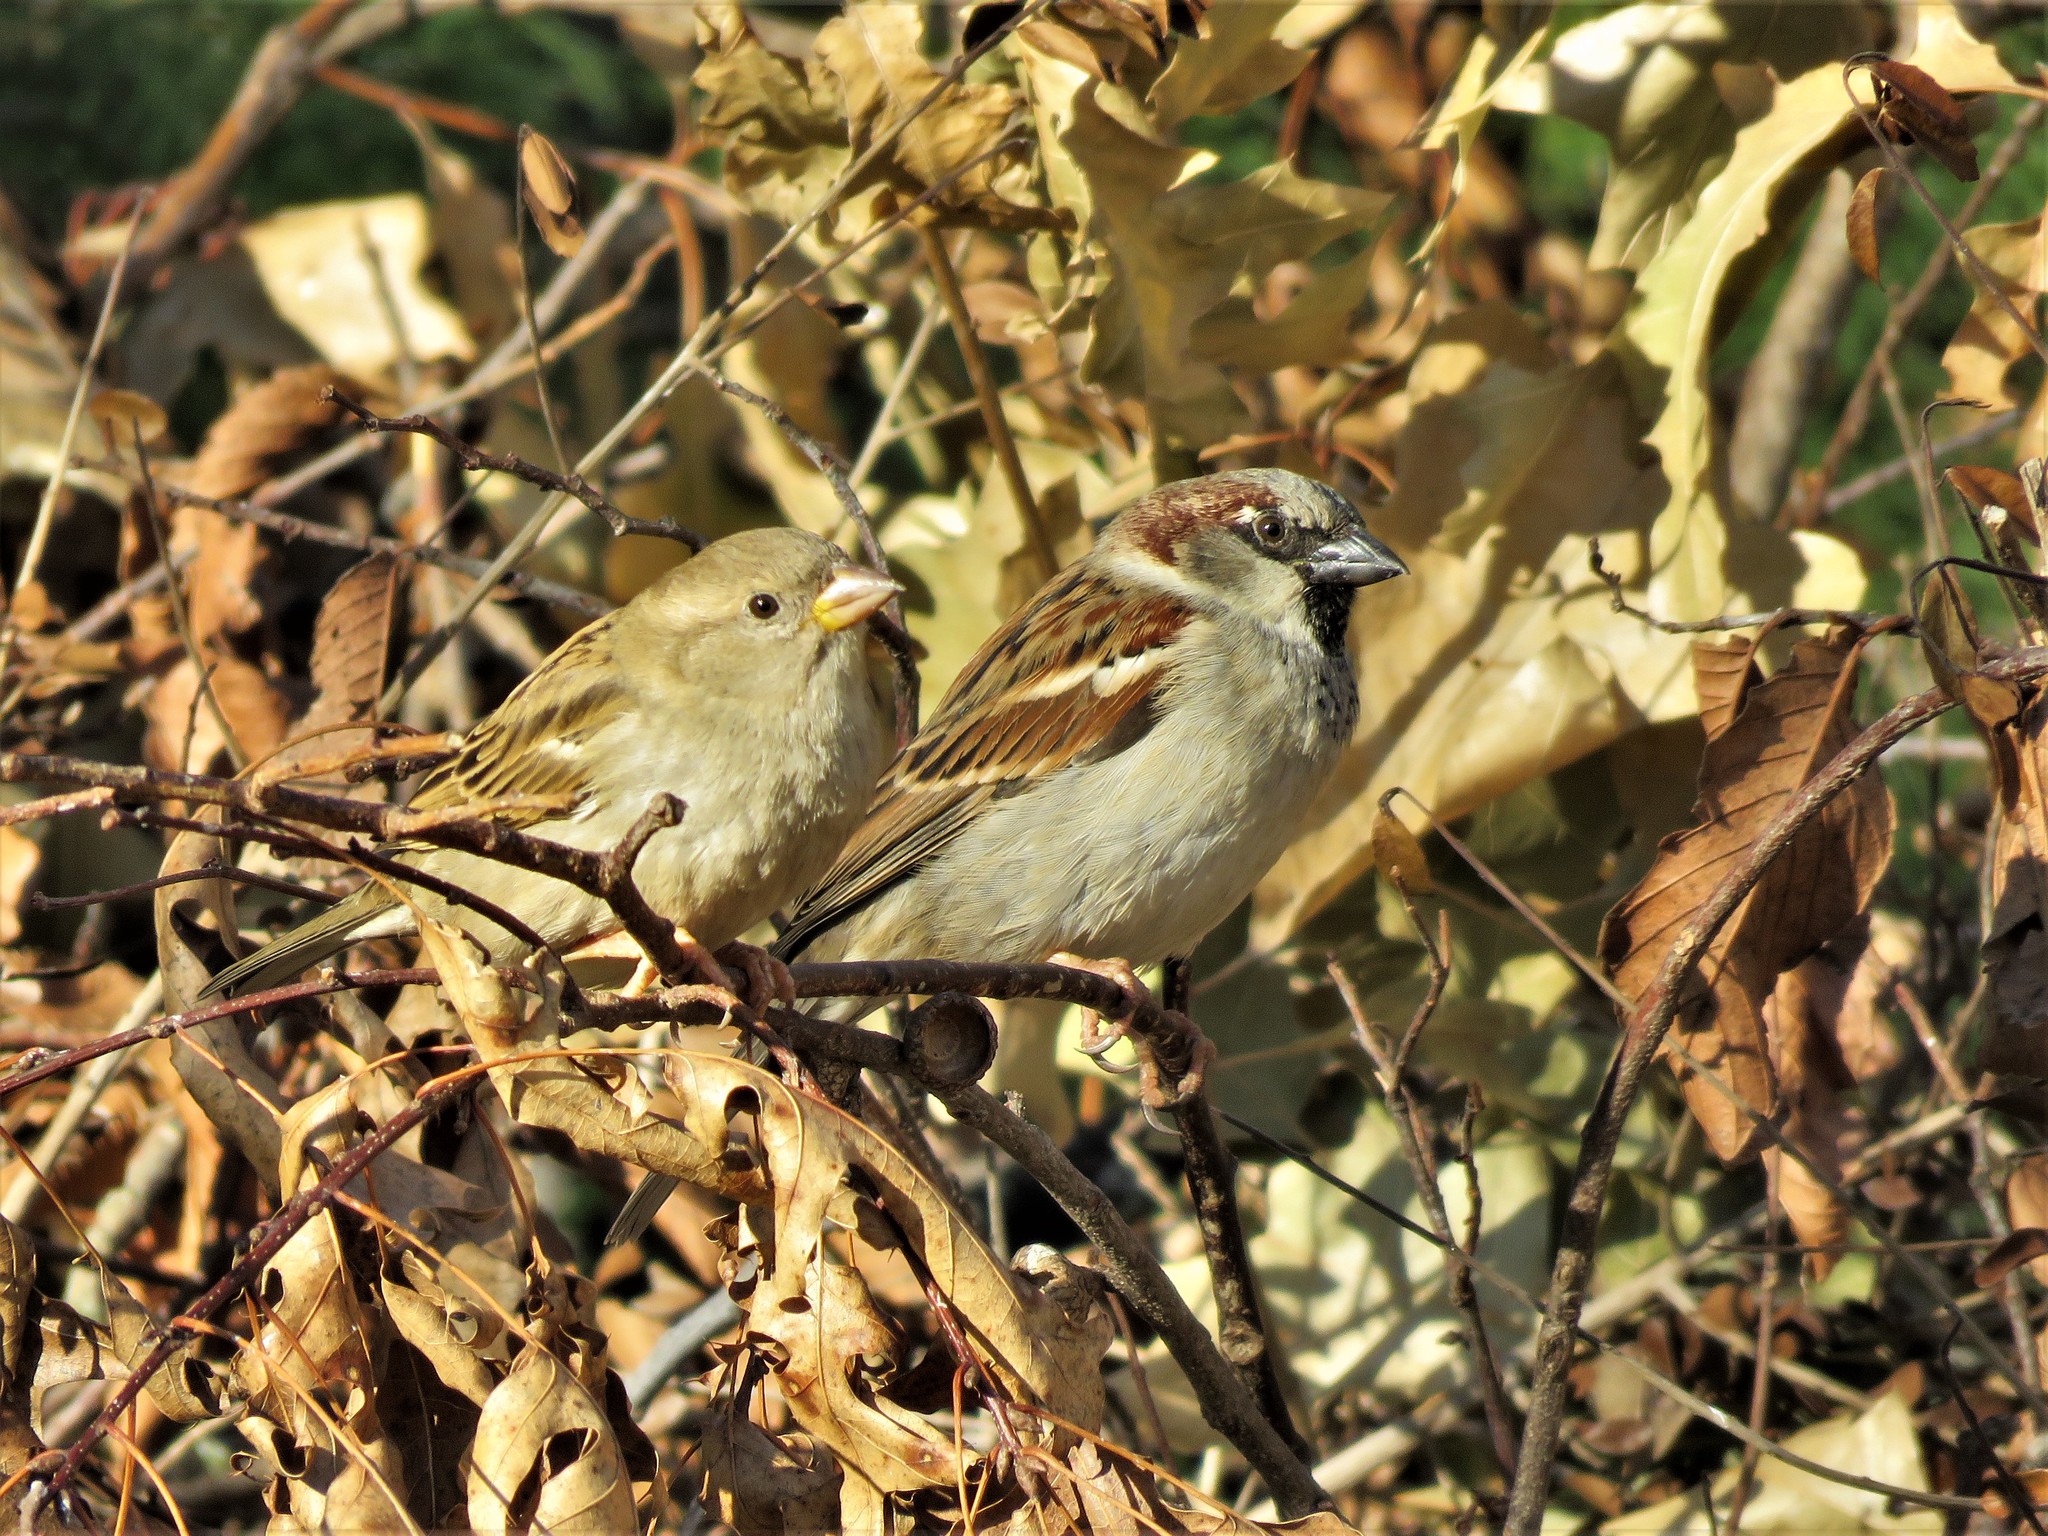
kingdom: Animalia
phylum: Chordata
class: Aves
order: Passeriformes
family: Passeridae
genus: Passer
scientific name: Passer domesticus
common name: House sparrow
